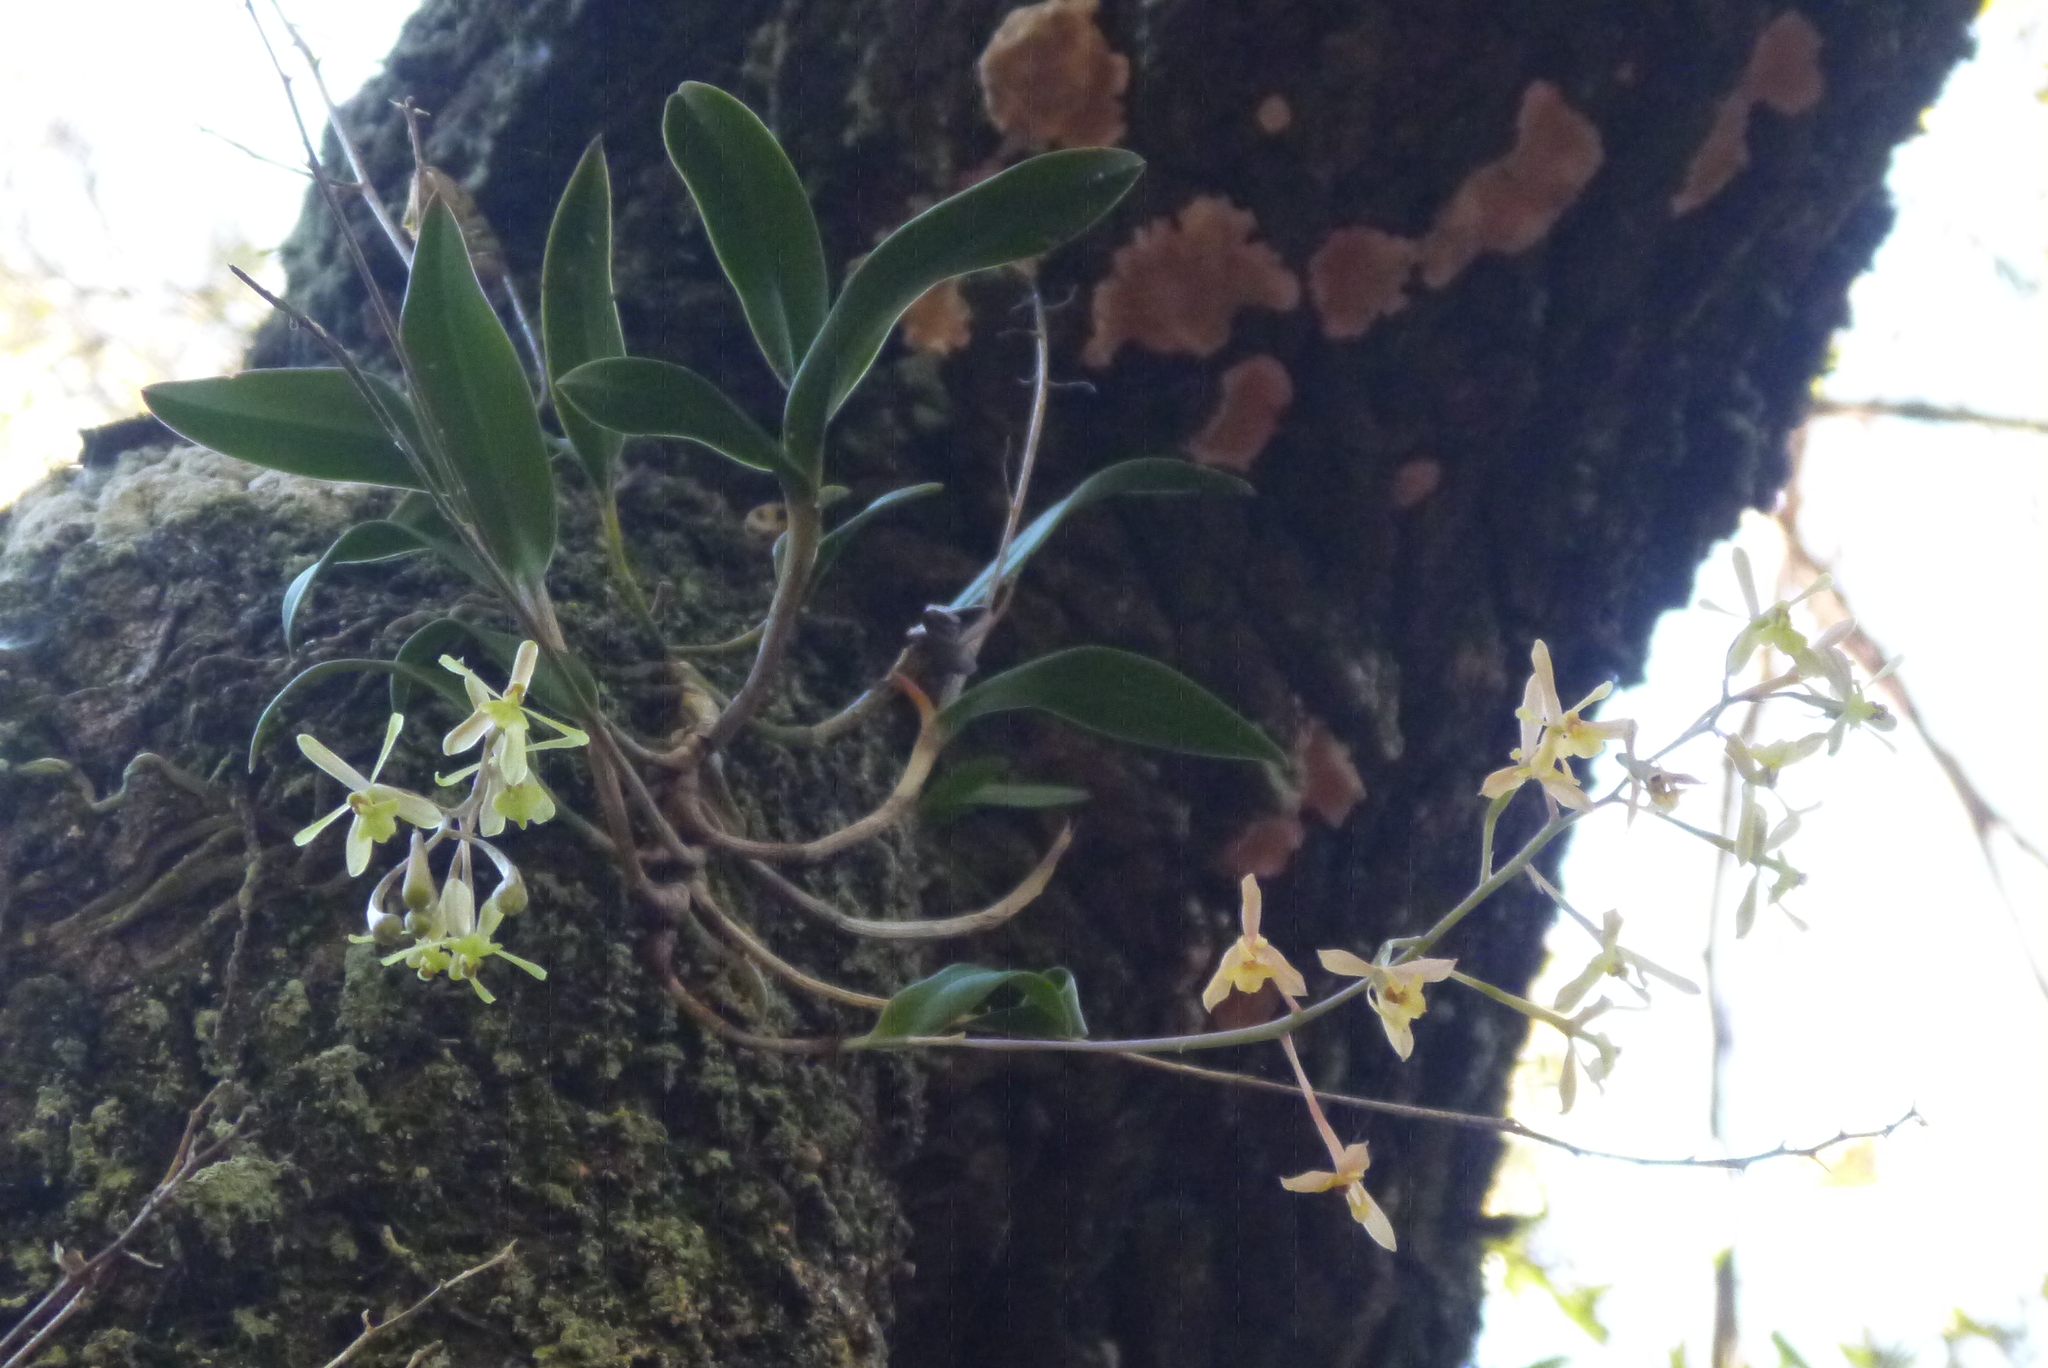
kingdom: Plantae
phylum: Tracheophyta
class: Liliopsida
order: Asparagales
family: Orchidaceae
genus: Epidendrum
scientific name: Epidendrum conopseum
